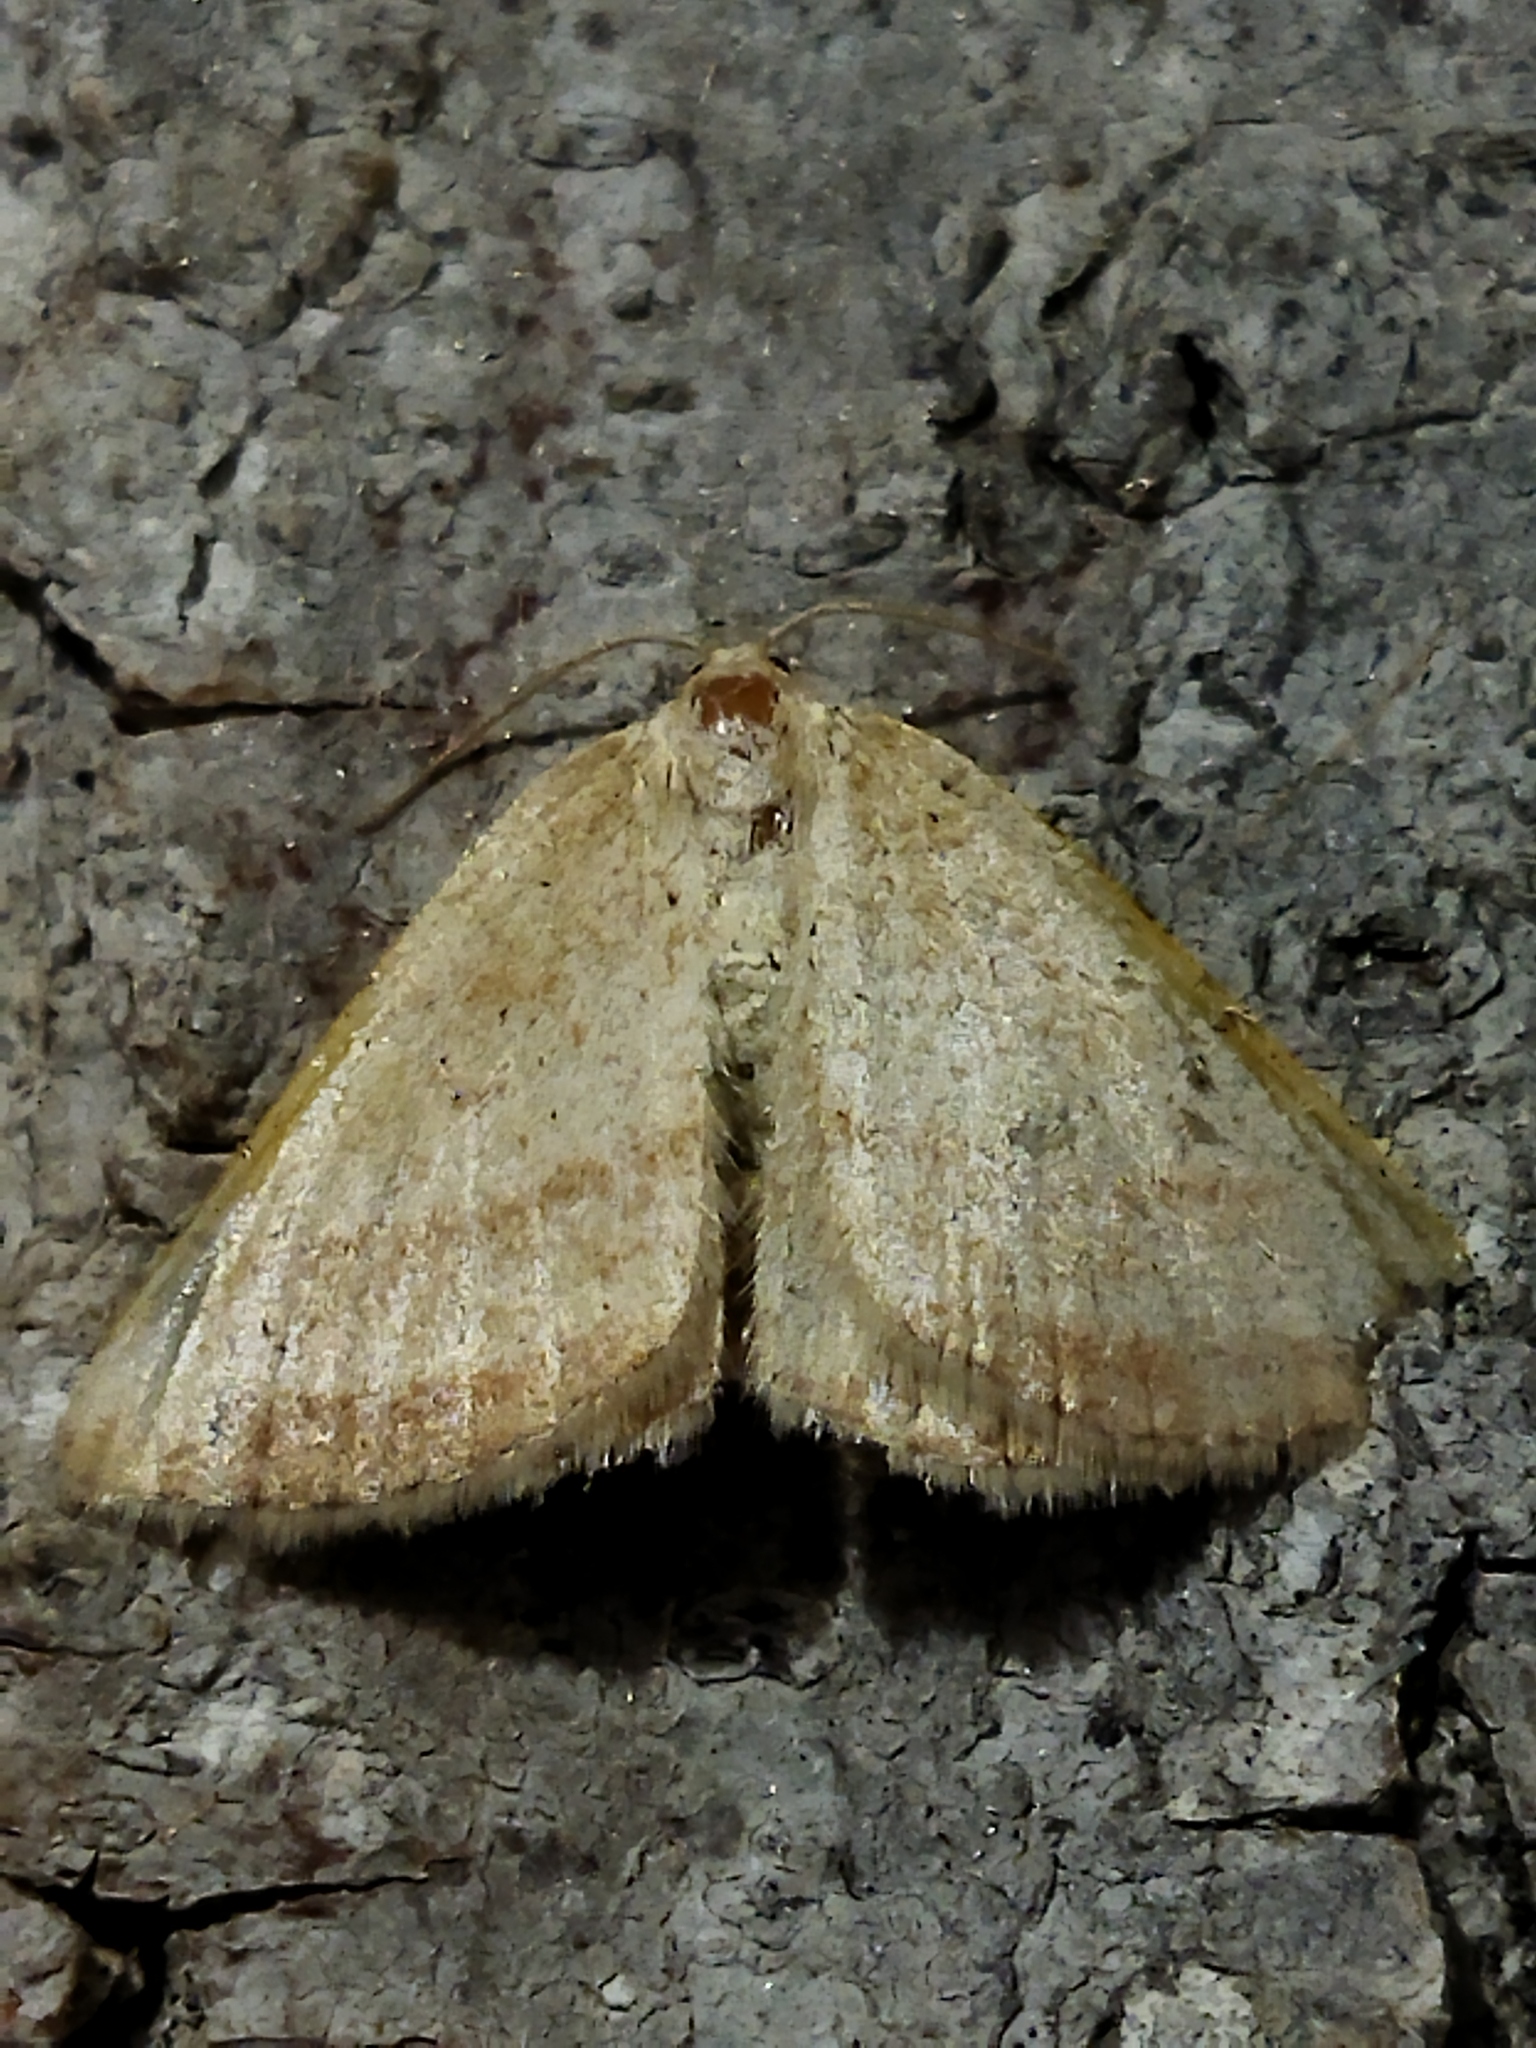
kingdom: Animalia
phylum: Arthropoda
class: Insecta
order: Lepidoptera
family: Geometridae
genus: Aplasta
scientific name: Aplasta ononaria
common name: Rest harrow
